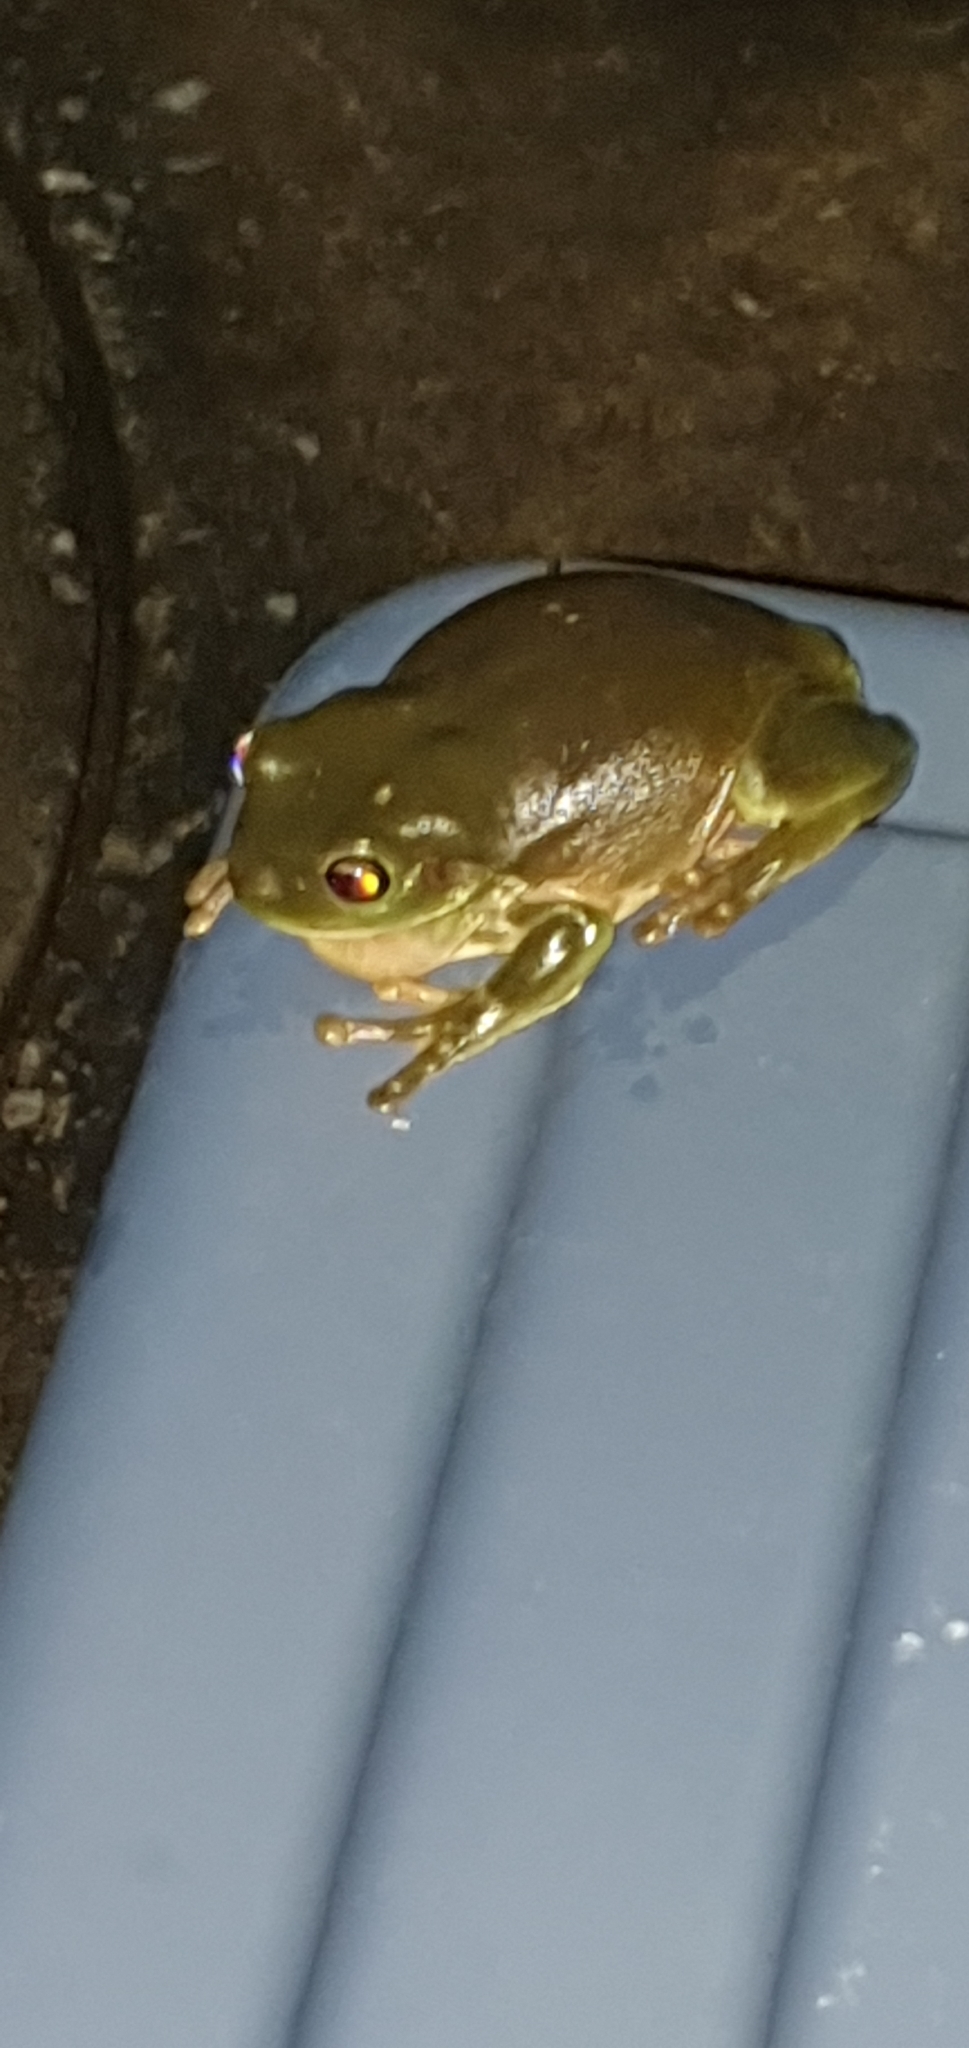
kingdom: Animalia
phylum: Chordata
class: Amphibia
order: Anura
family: Pelodryadidae
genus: Ranoidea
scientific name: Ranoidea caerulea
